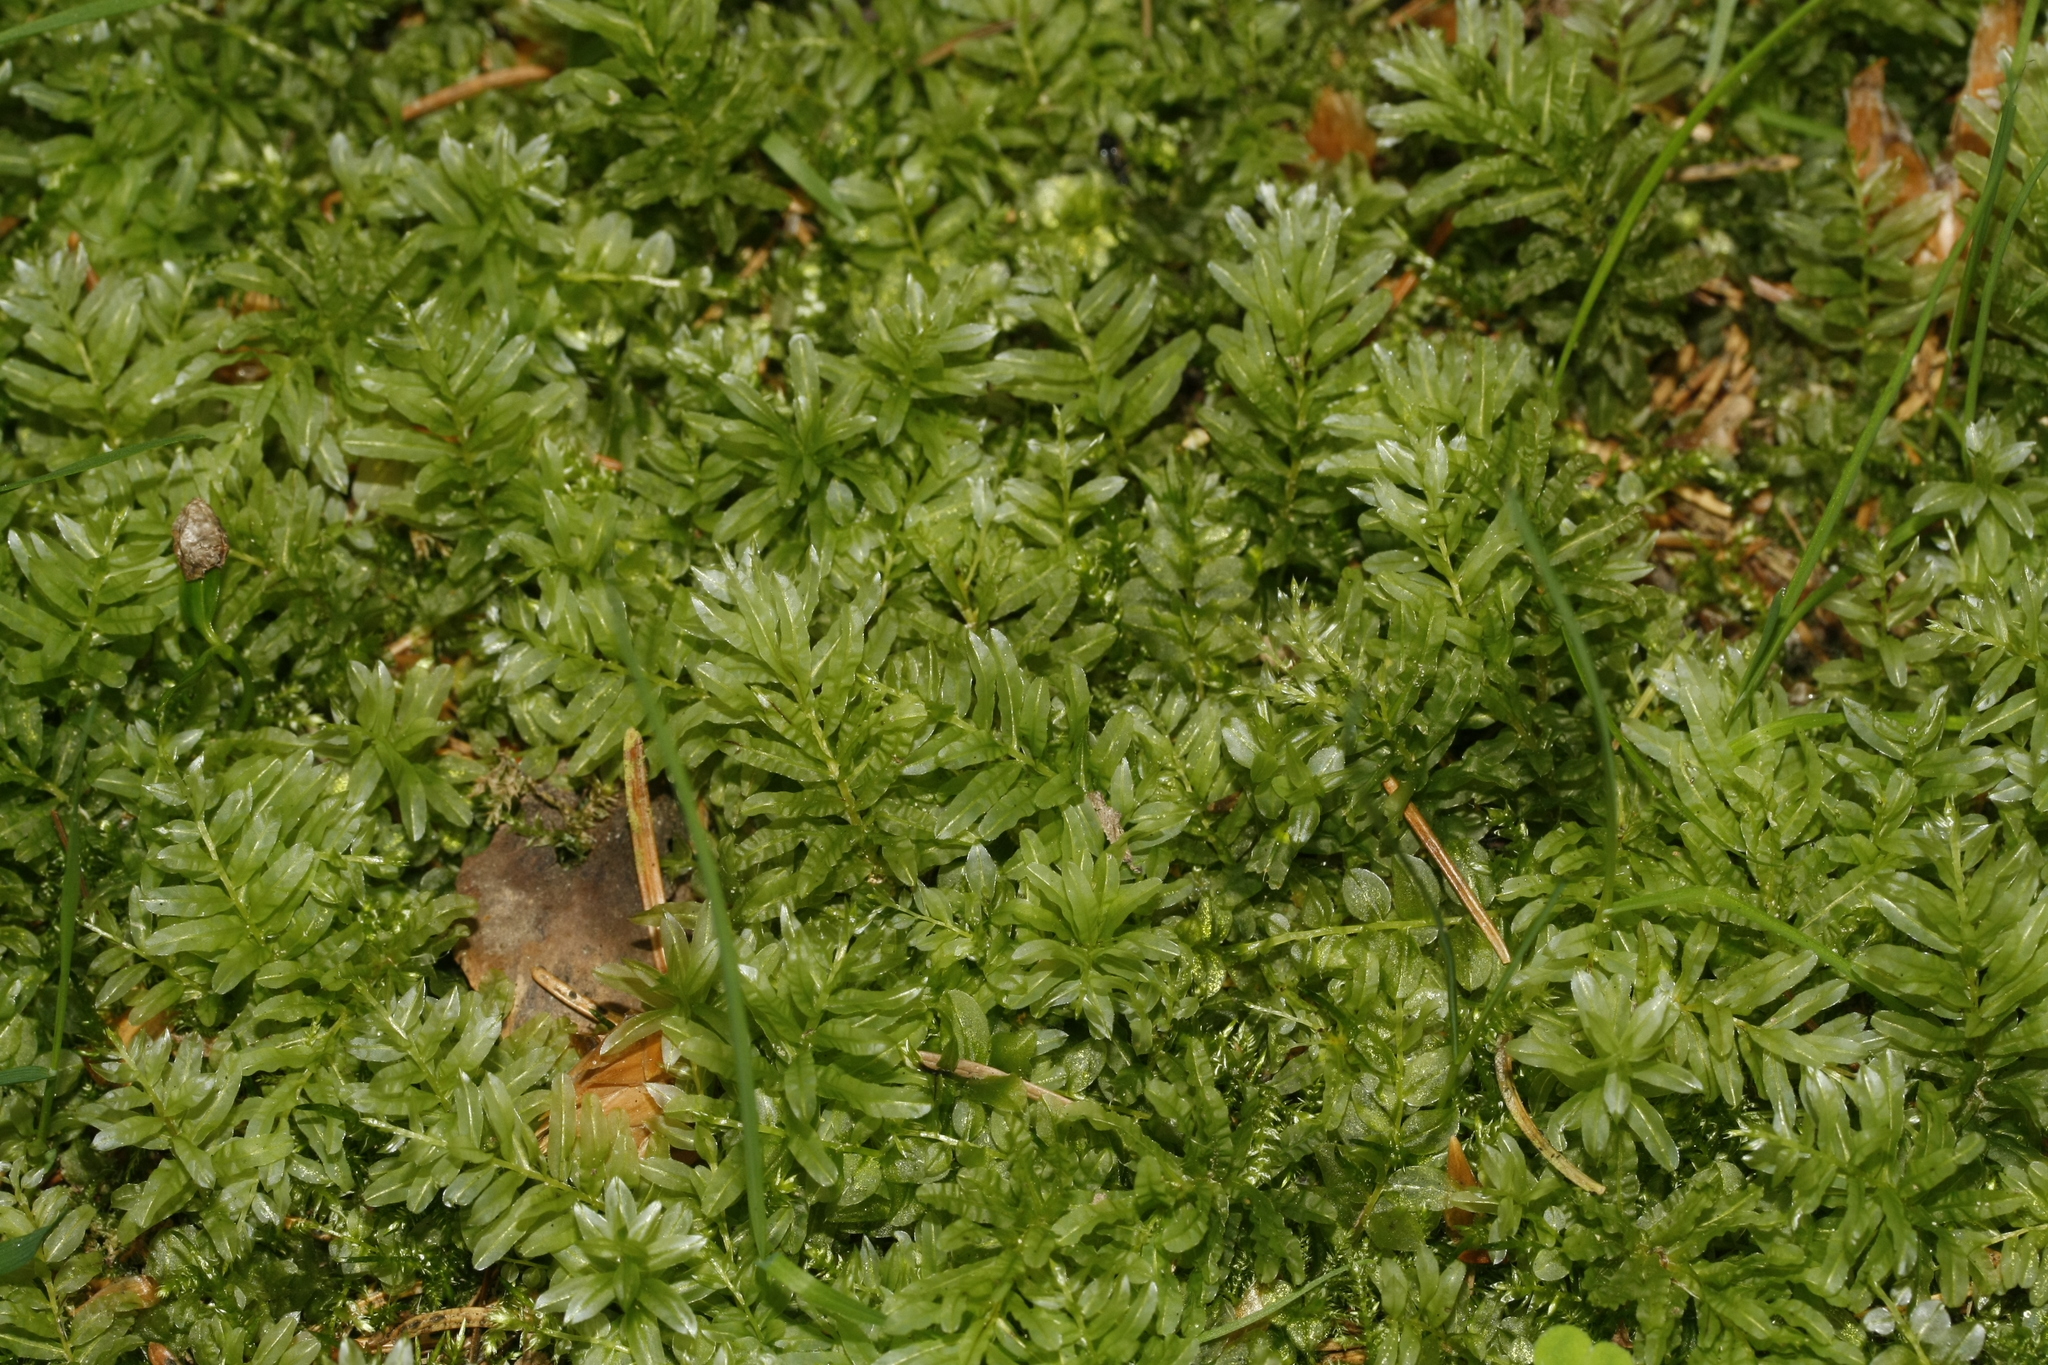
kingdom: Plantae
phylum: Bryophyta
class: Bryopsida
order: Bryales
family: Mniaceae
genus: Plagiomnium
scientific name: Plagiomnium undulatum
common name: Hart's-tongue thyme-moss
